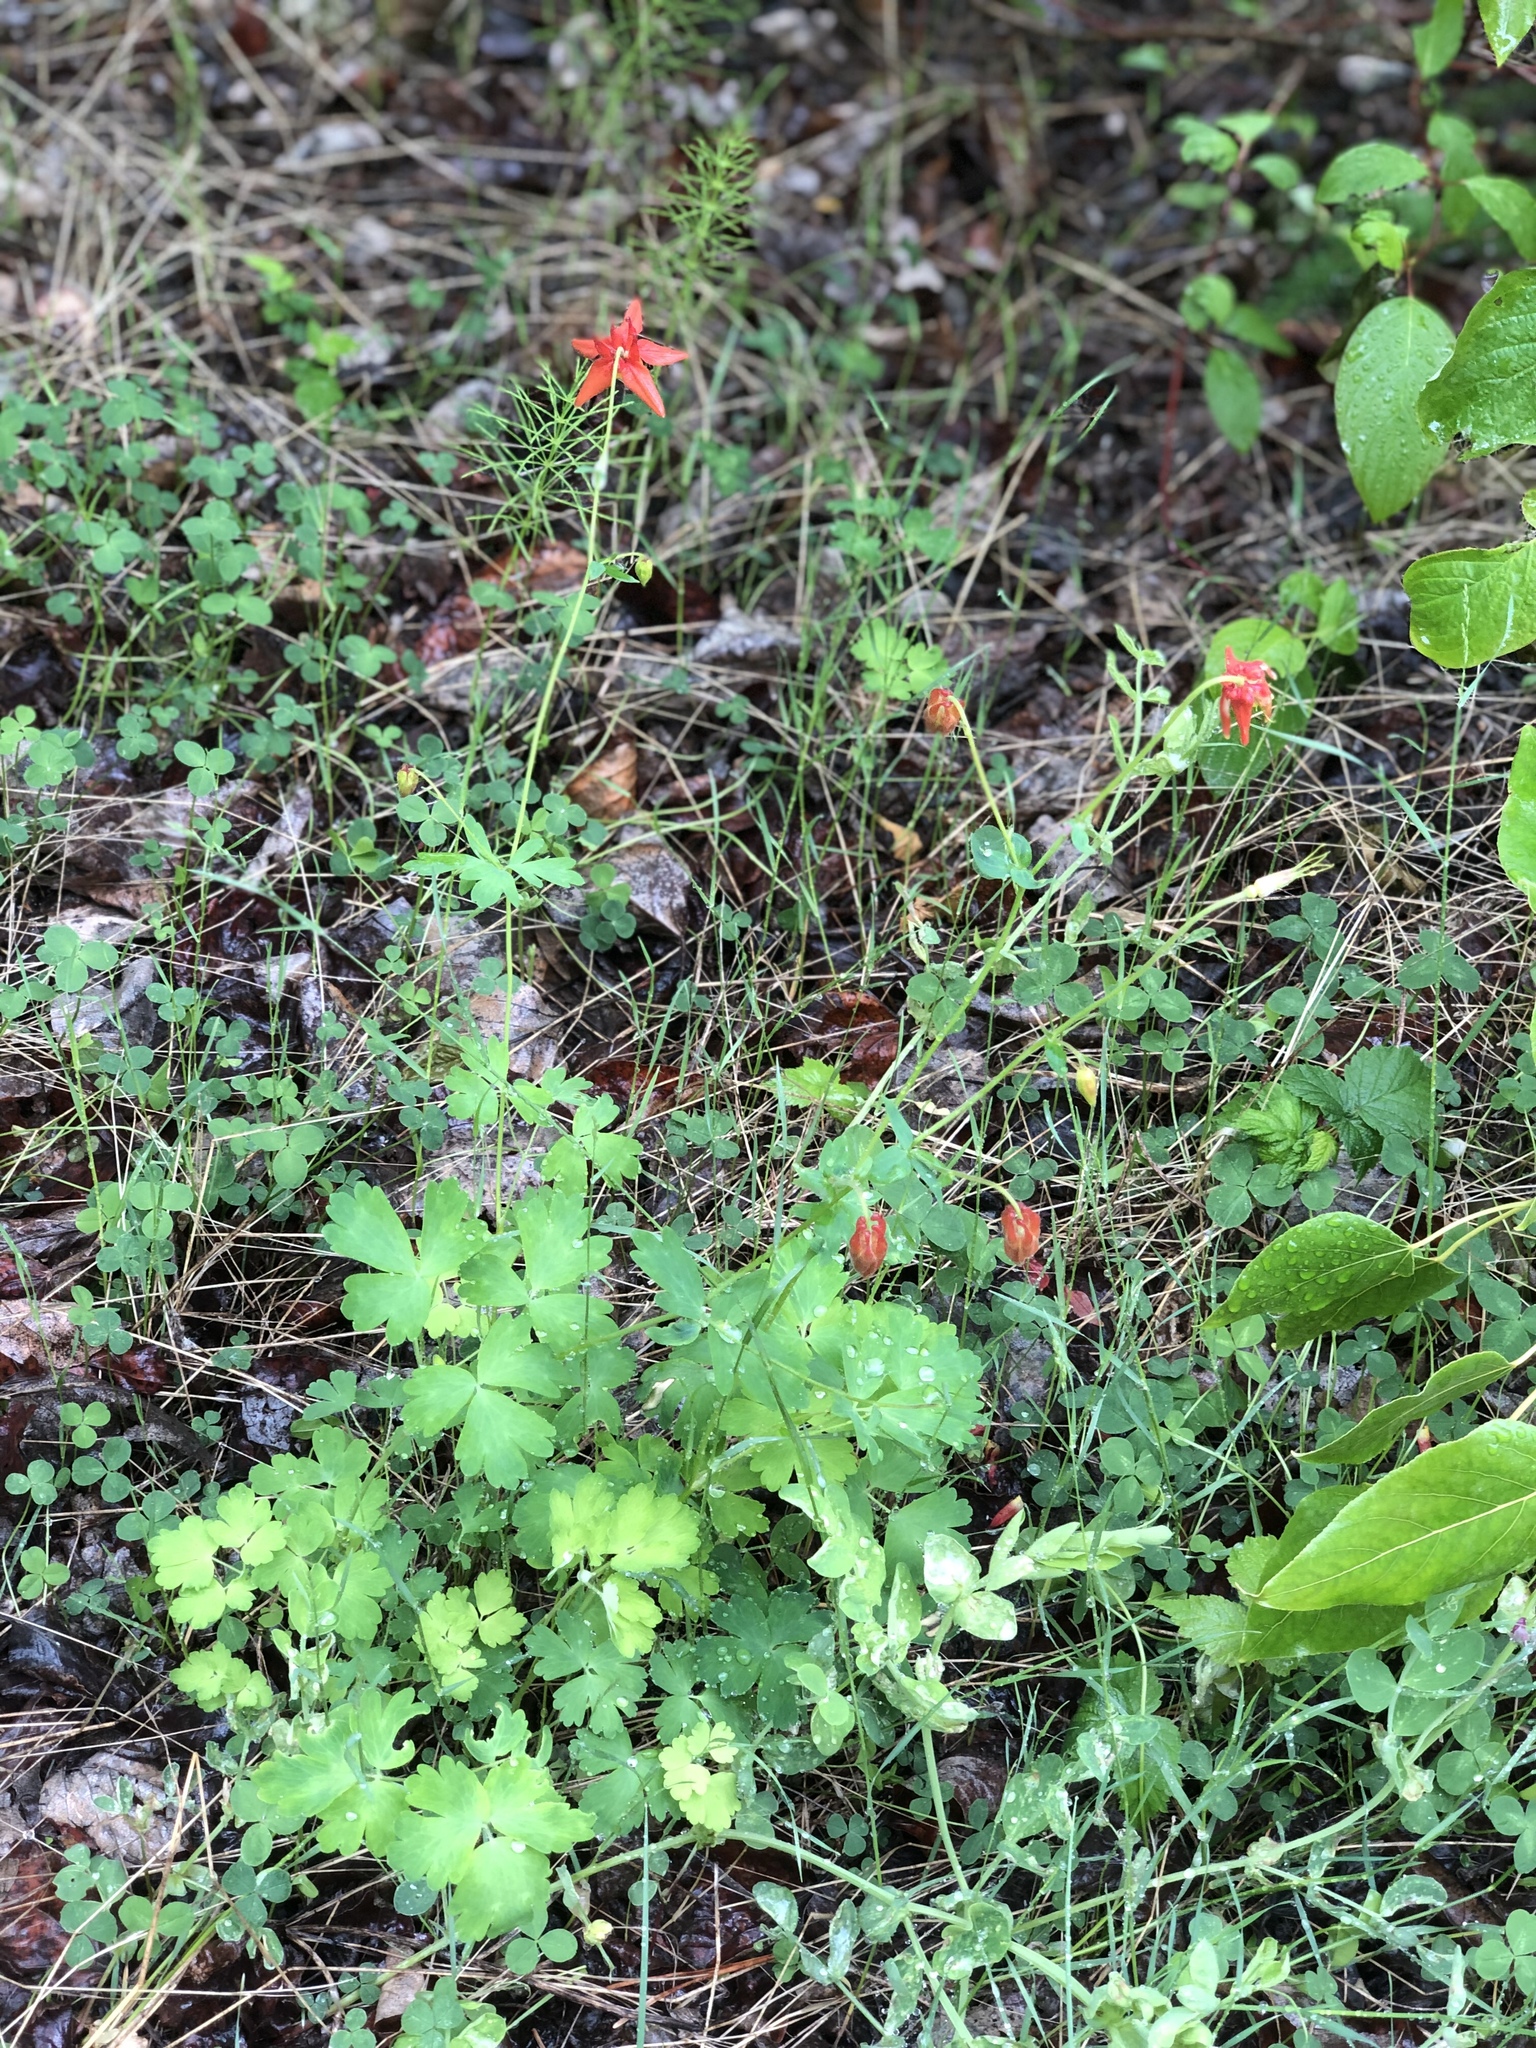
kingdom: Plantae
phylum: Tracheophyta
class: Magnoliopsida
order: Ranunculales
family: Ranunculaceae
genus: Aquilegia
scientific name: Aquilegia formosa
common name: Sitka columbine
